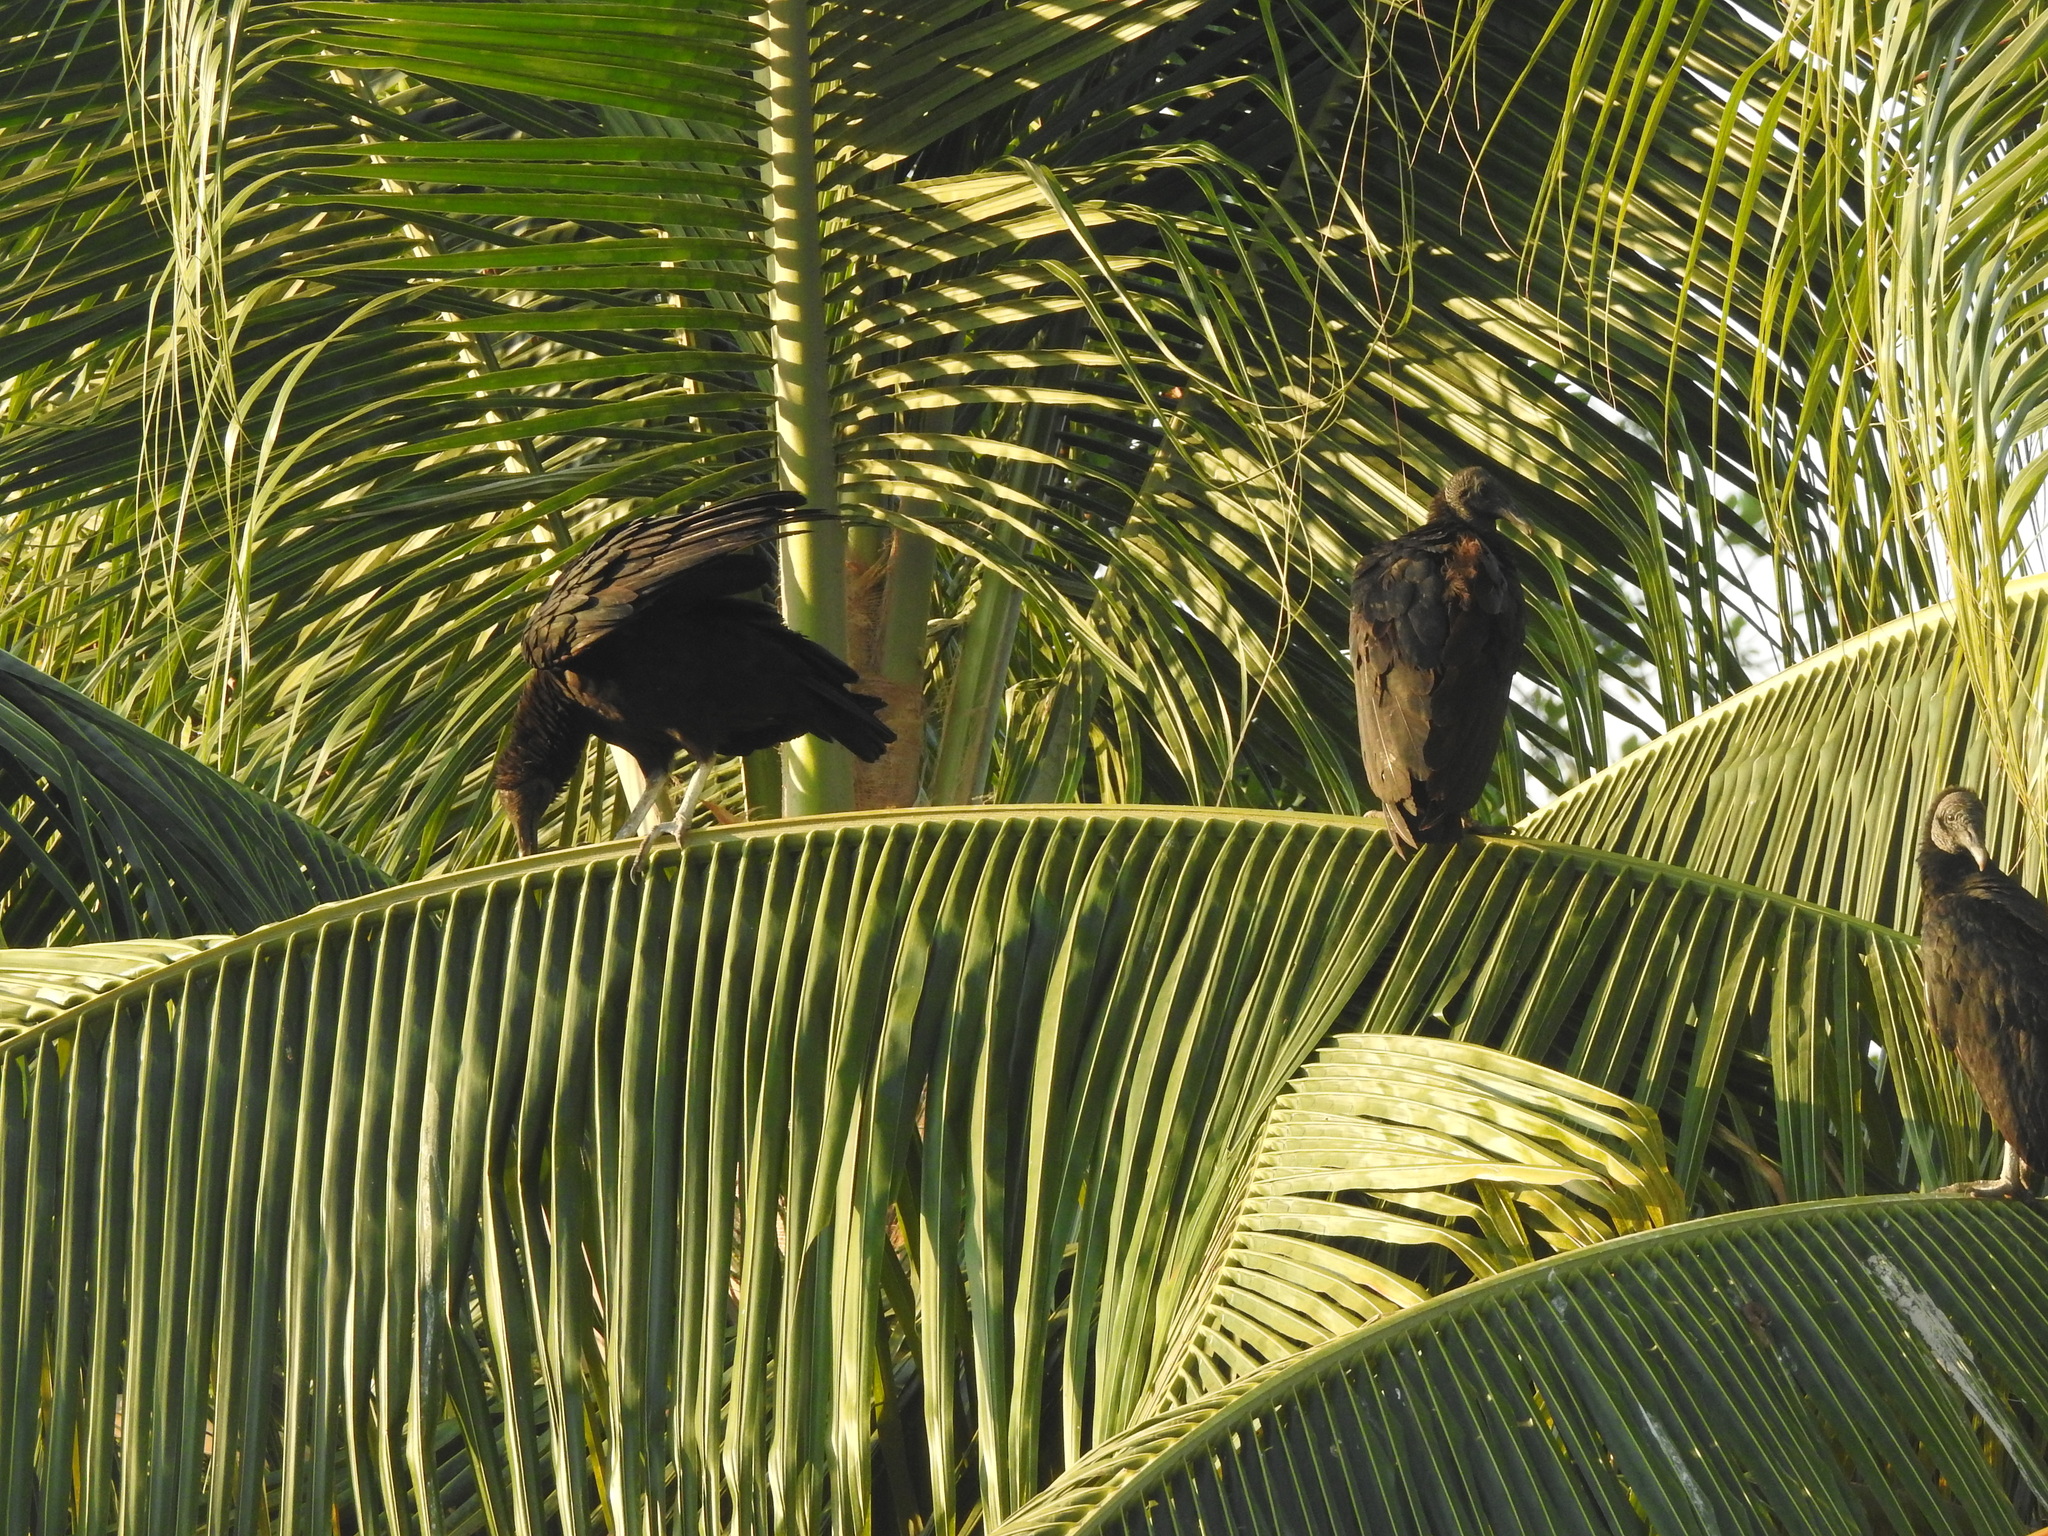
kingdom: Animalia
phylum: Chordata
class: Aves
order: Accipitriformes
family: Cathartidae
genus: Coragyps
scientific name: Coragyps atratus
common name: Black vulture
